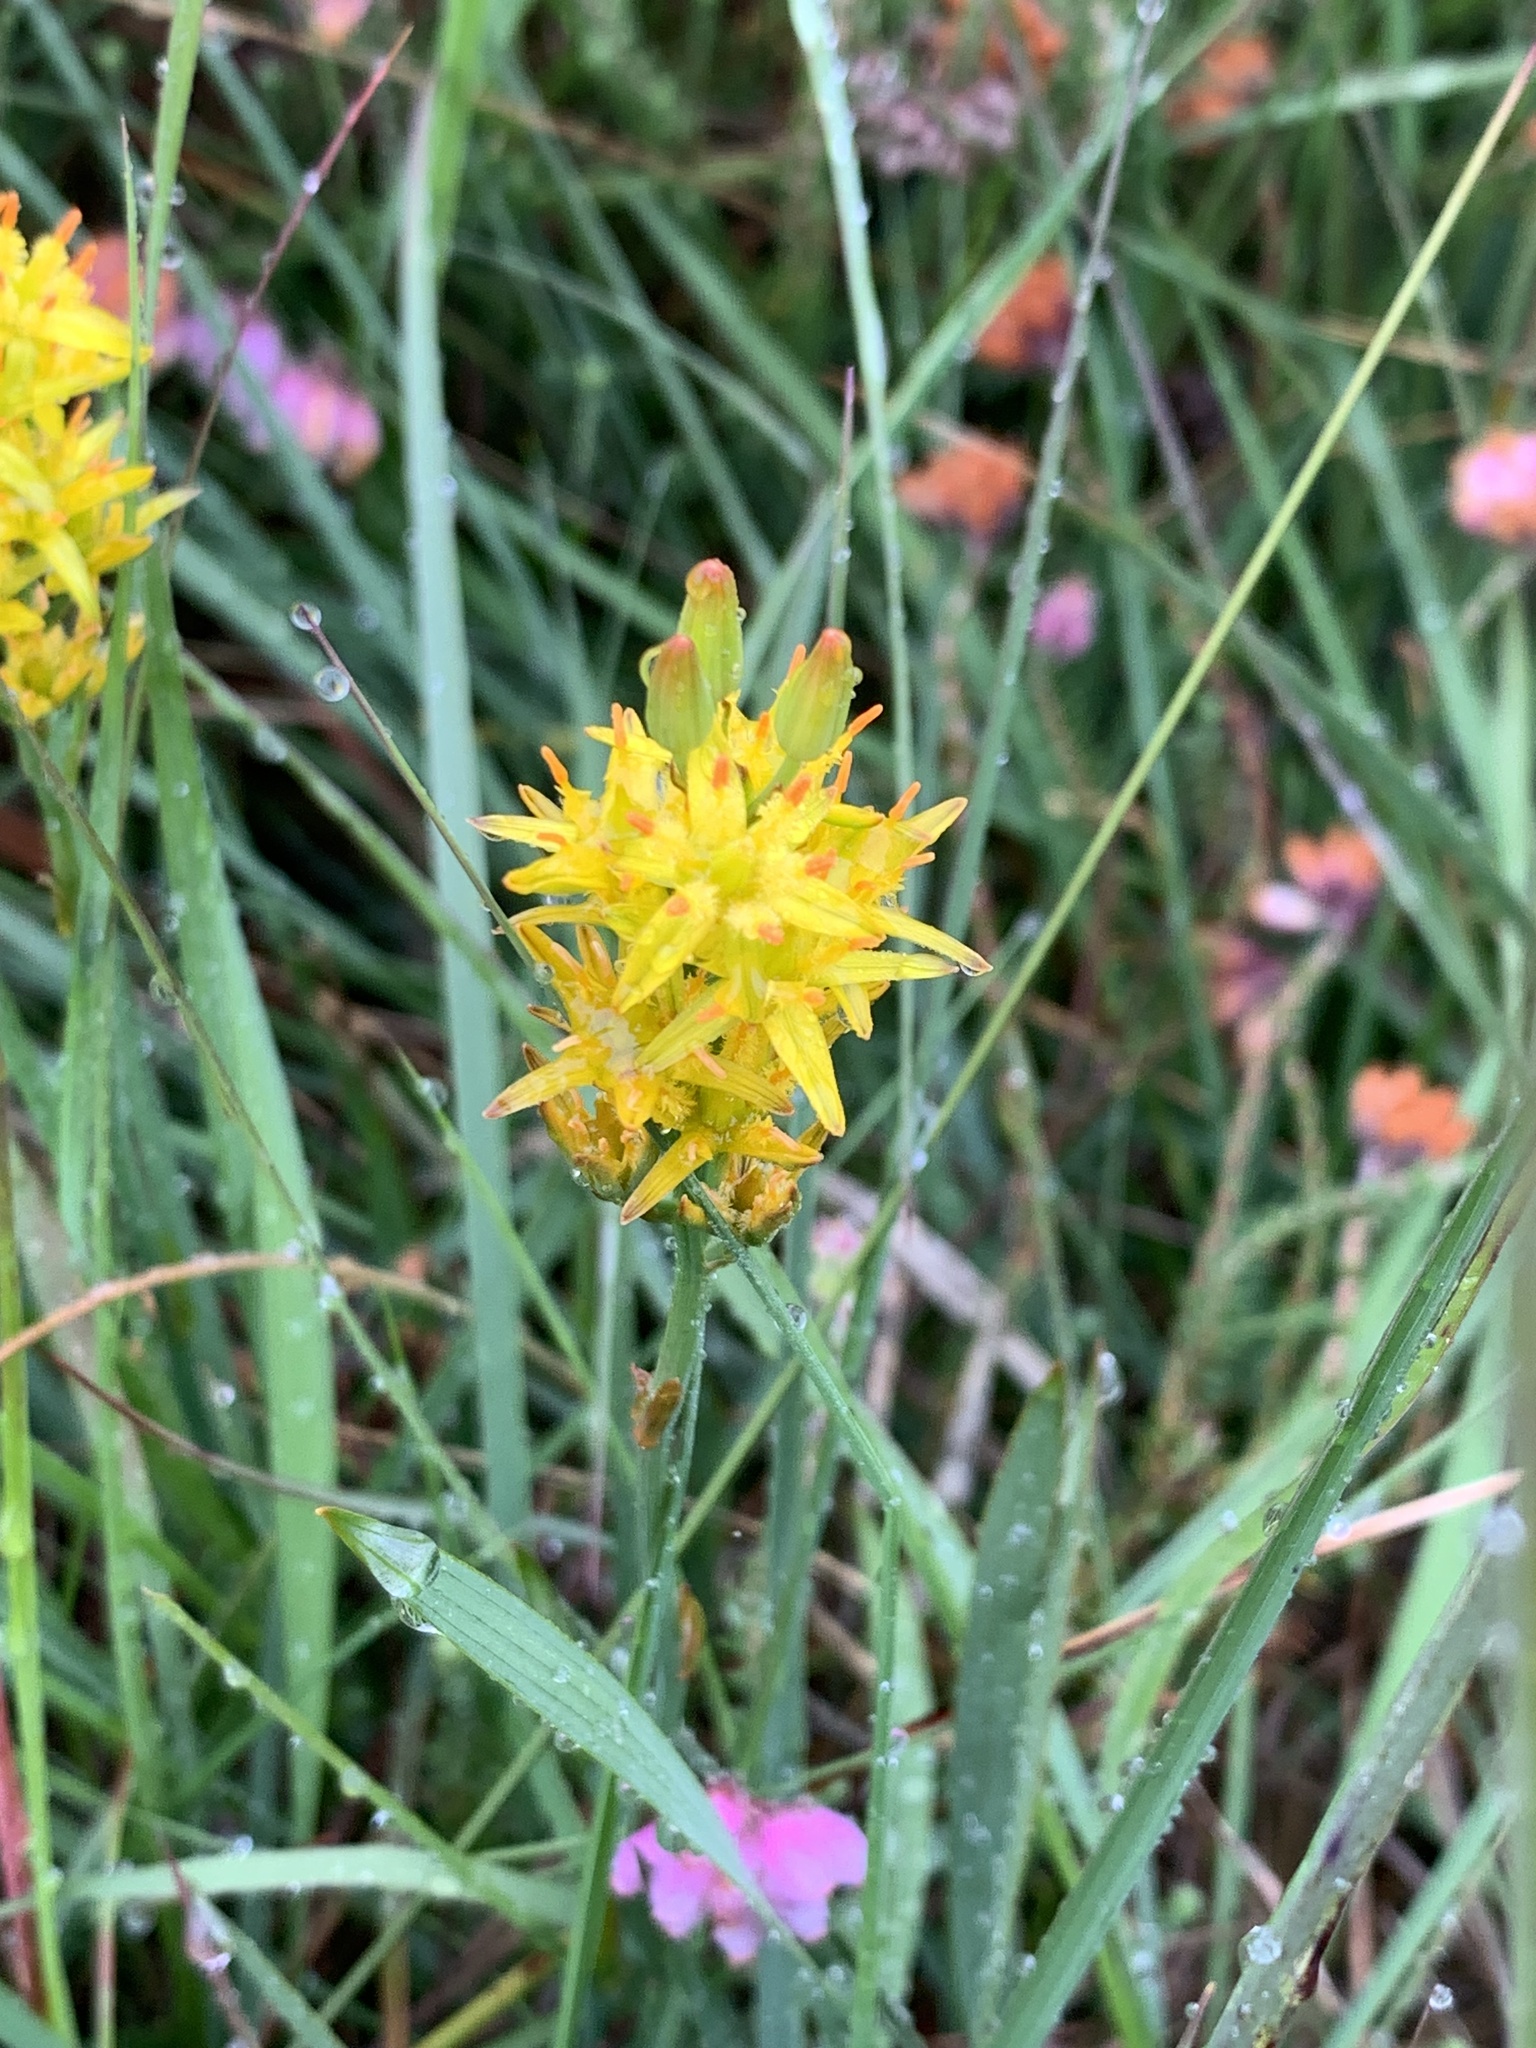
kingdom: Plantae
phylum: Tracheophyta
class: Liliopsida
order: Dioscoreales
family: Nartheciaceae
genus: Narthecium
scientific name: Narthecium ossifragum
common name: Bog asphodel
